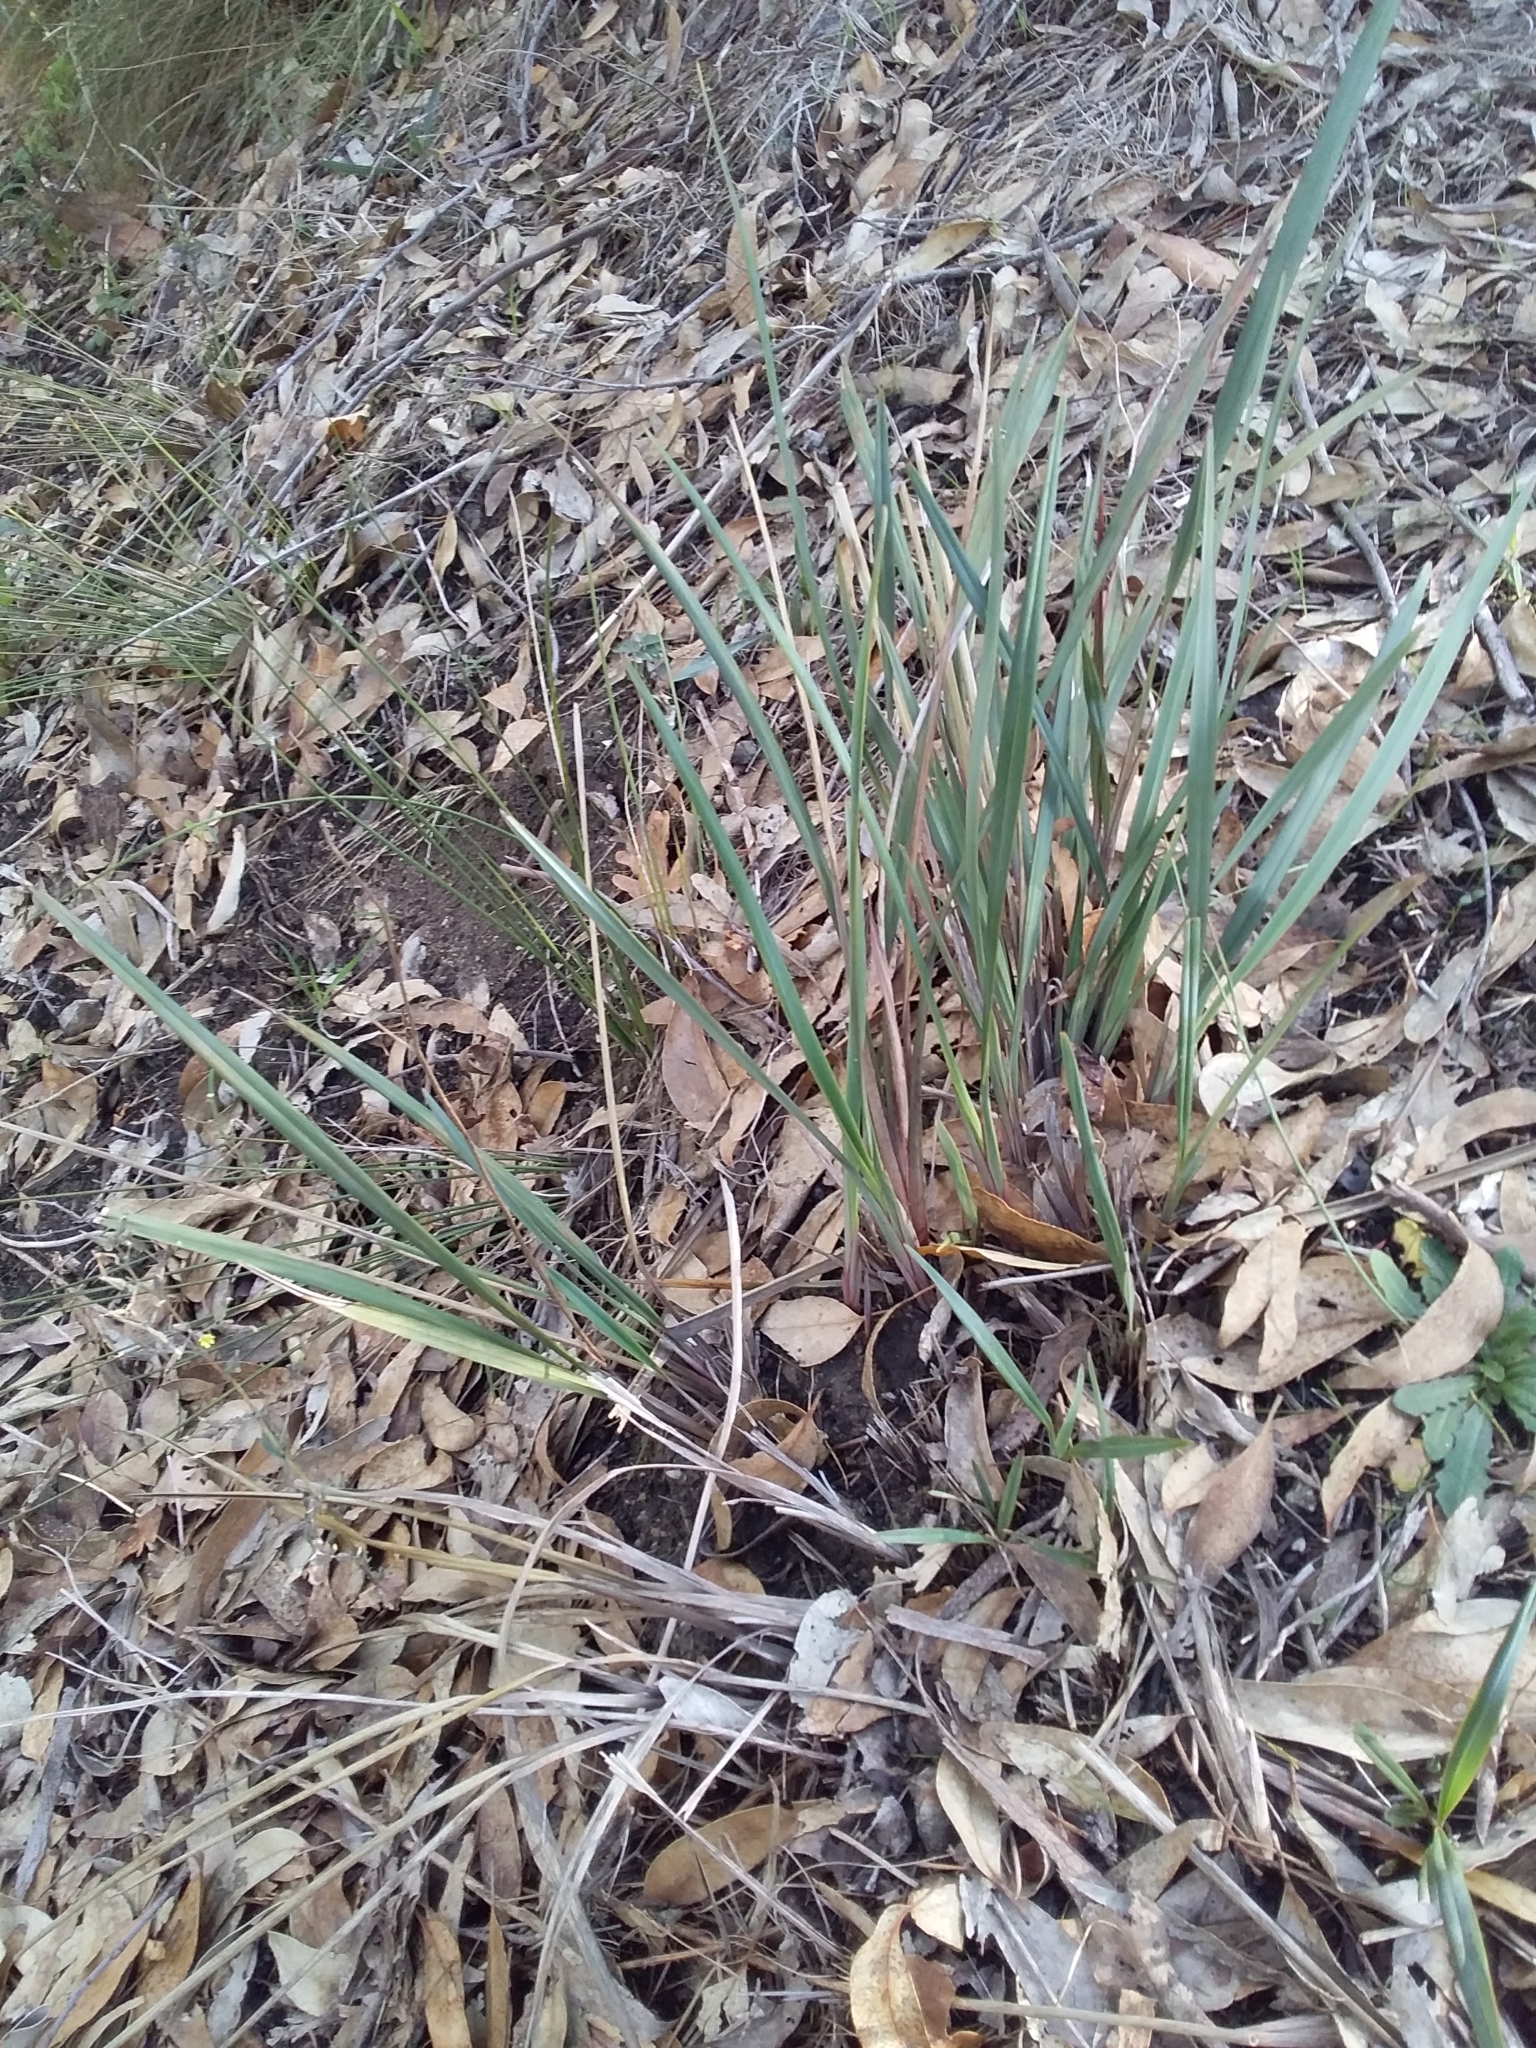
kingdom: Plantae
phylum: Tracheophyta
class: Liliopsida
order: Asparagales
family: Asphodelaceae
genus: Dianella
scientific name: Dianella revoluta
